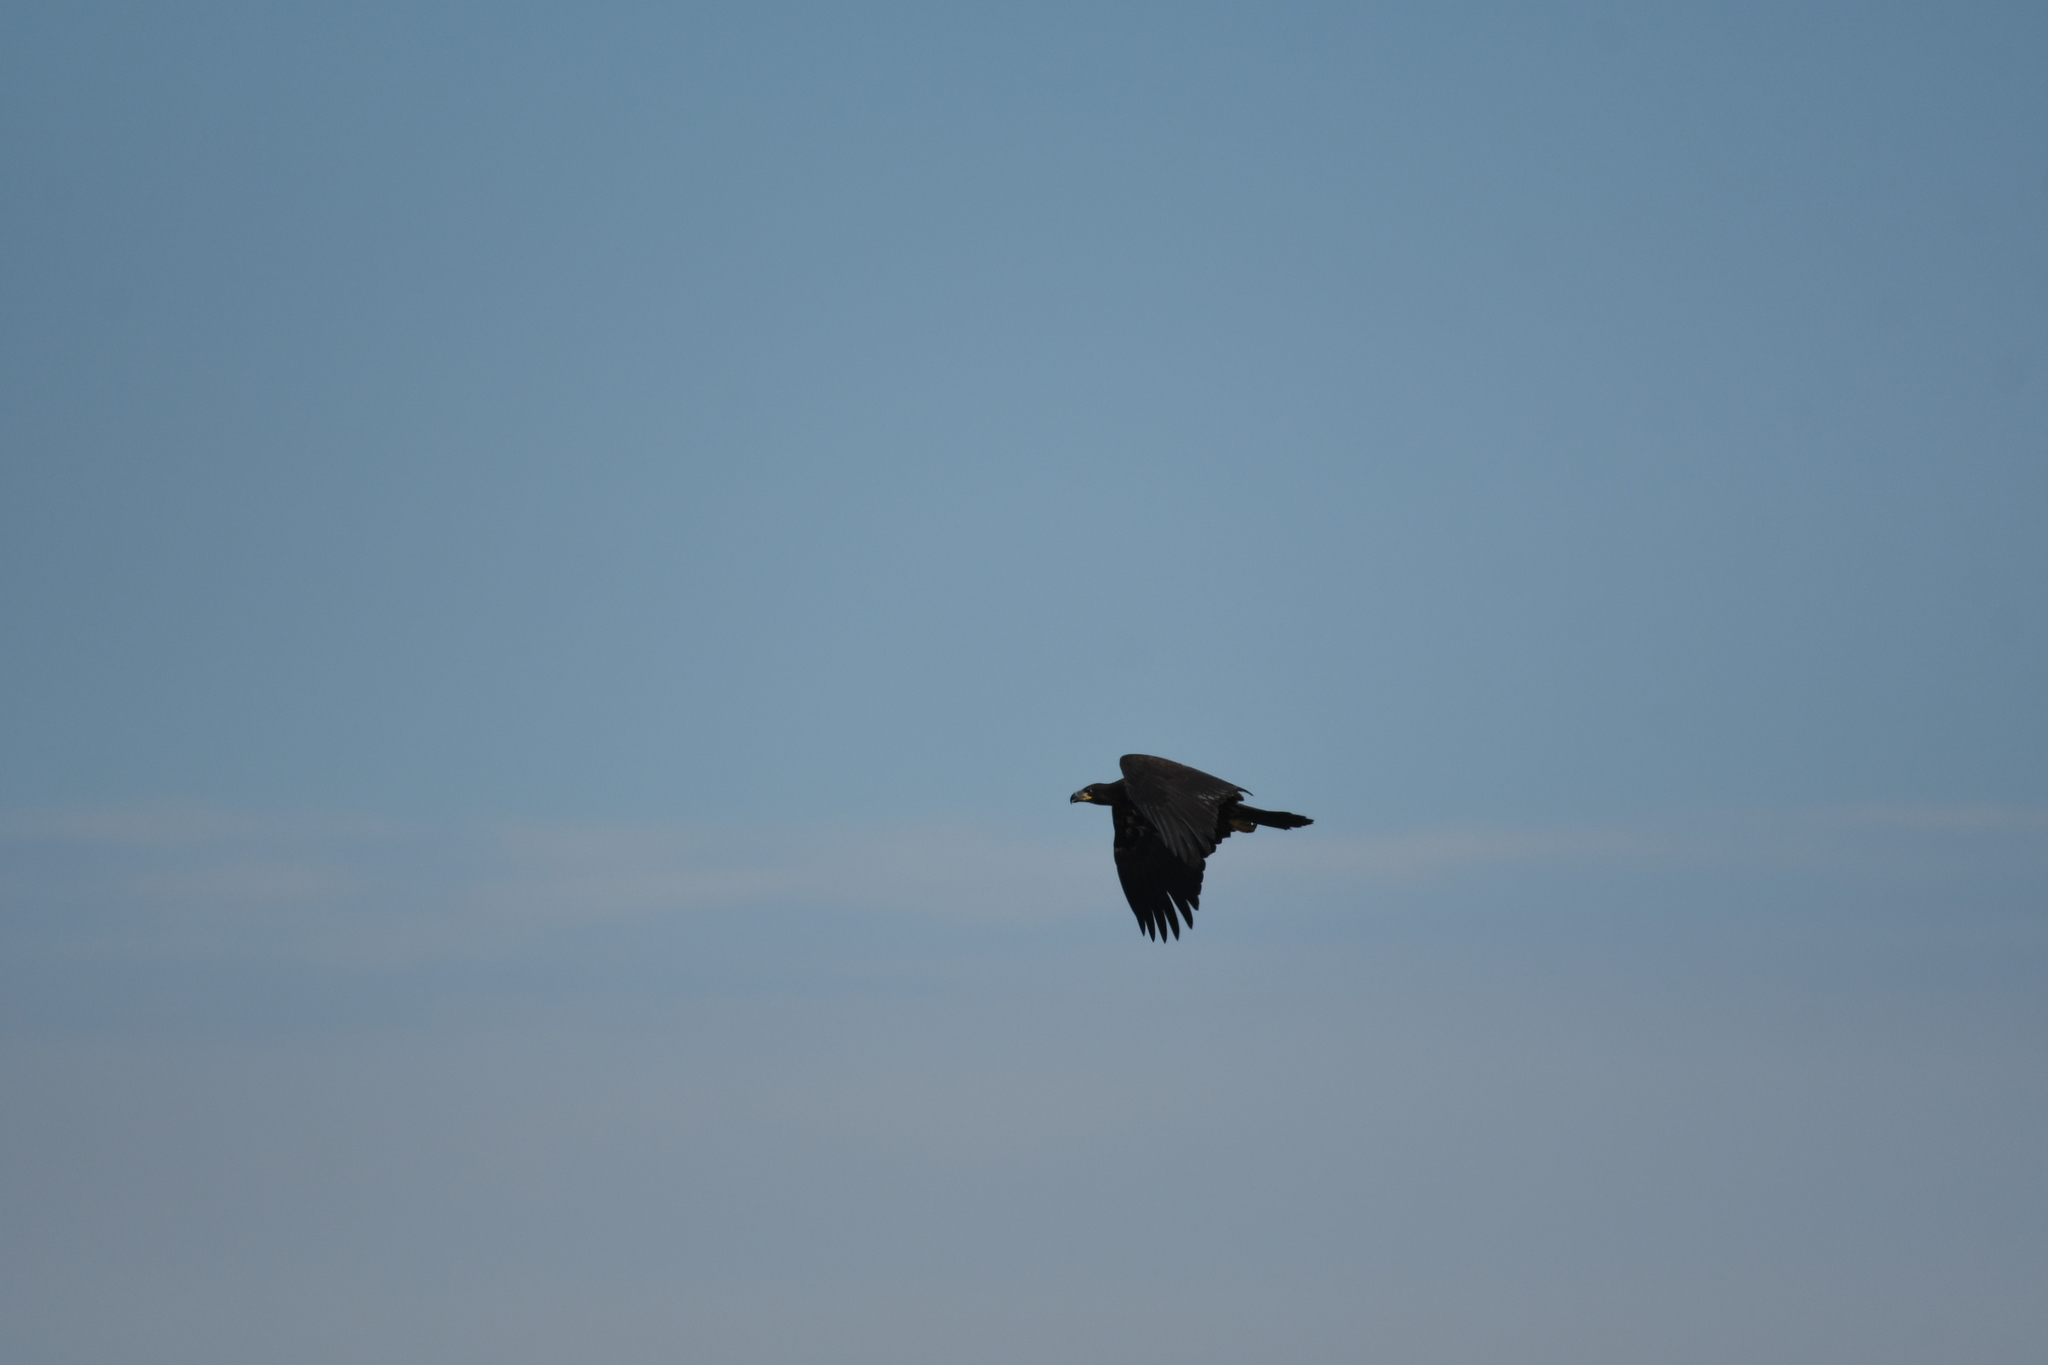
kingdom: Animalia
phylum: Chordata
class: Aves
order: Accipitriformes
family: Accipitridae
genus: Haliaeetus
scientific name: Haliaeetus leucocephalus
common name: Bald eagle
